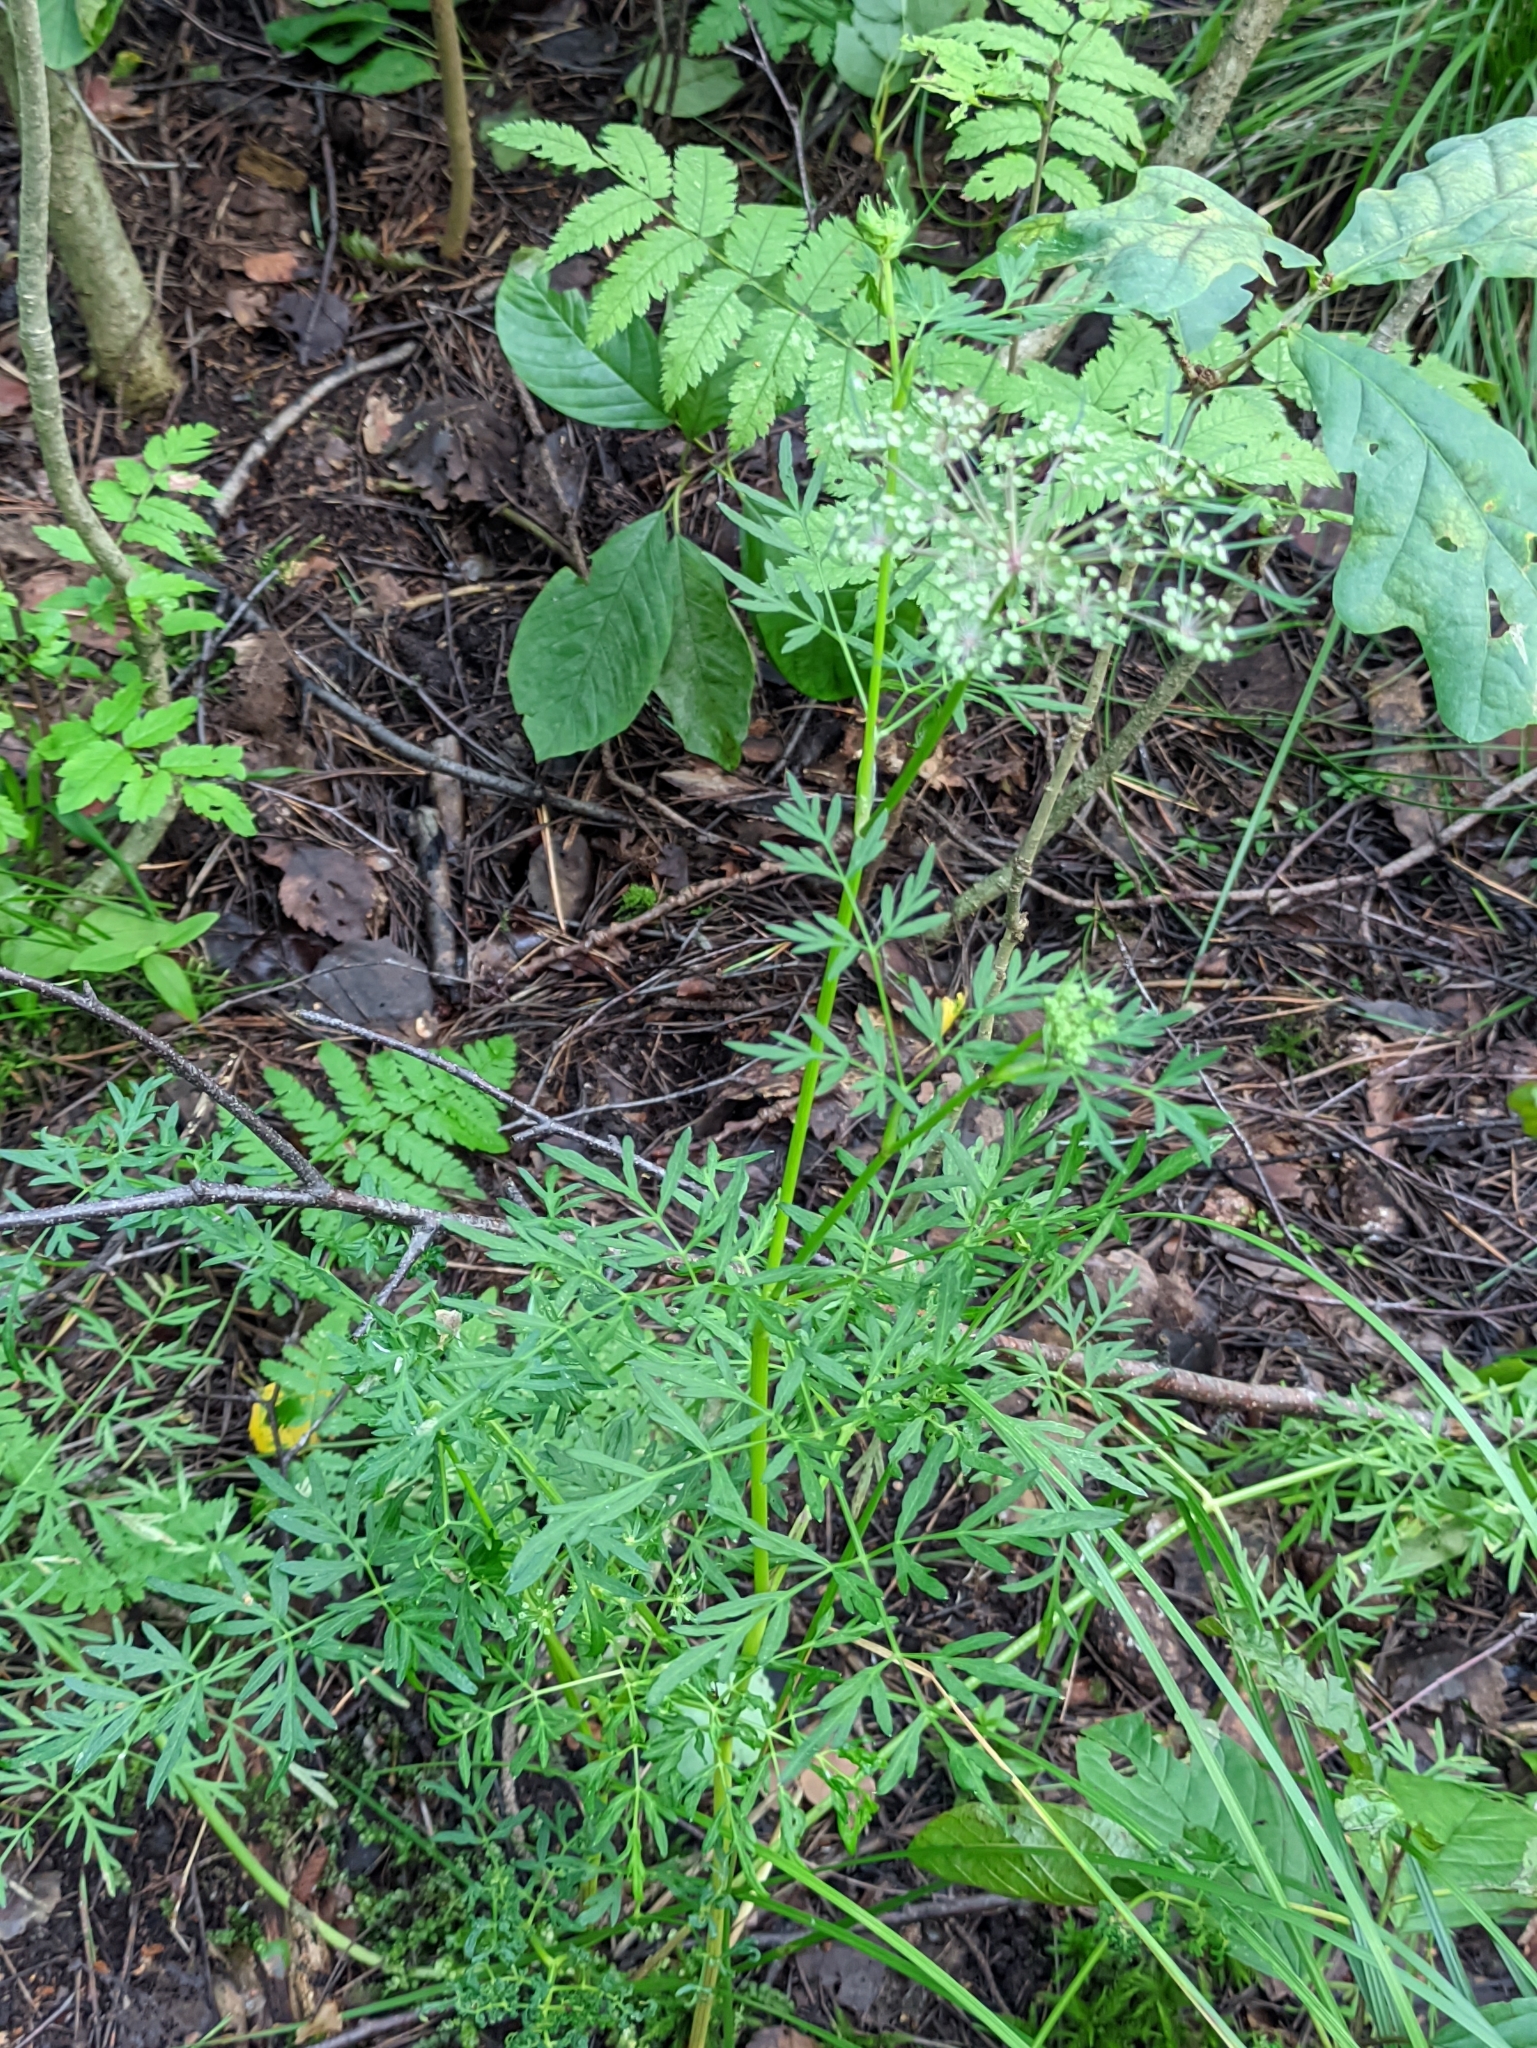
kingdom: Plantae
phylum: Tracheophyta
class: Magnoliopsida
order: Apiales
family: Apiaceae
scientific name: Apiaceae
